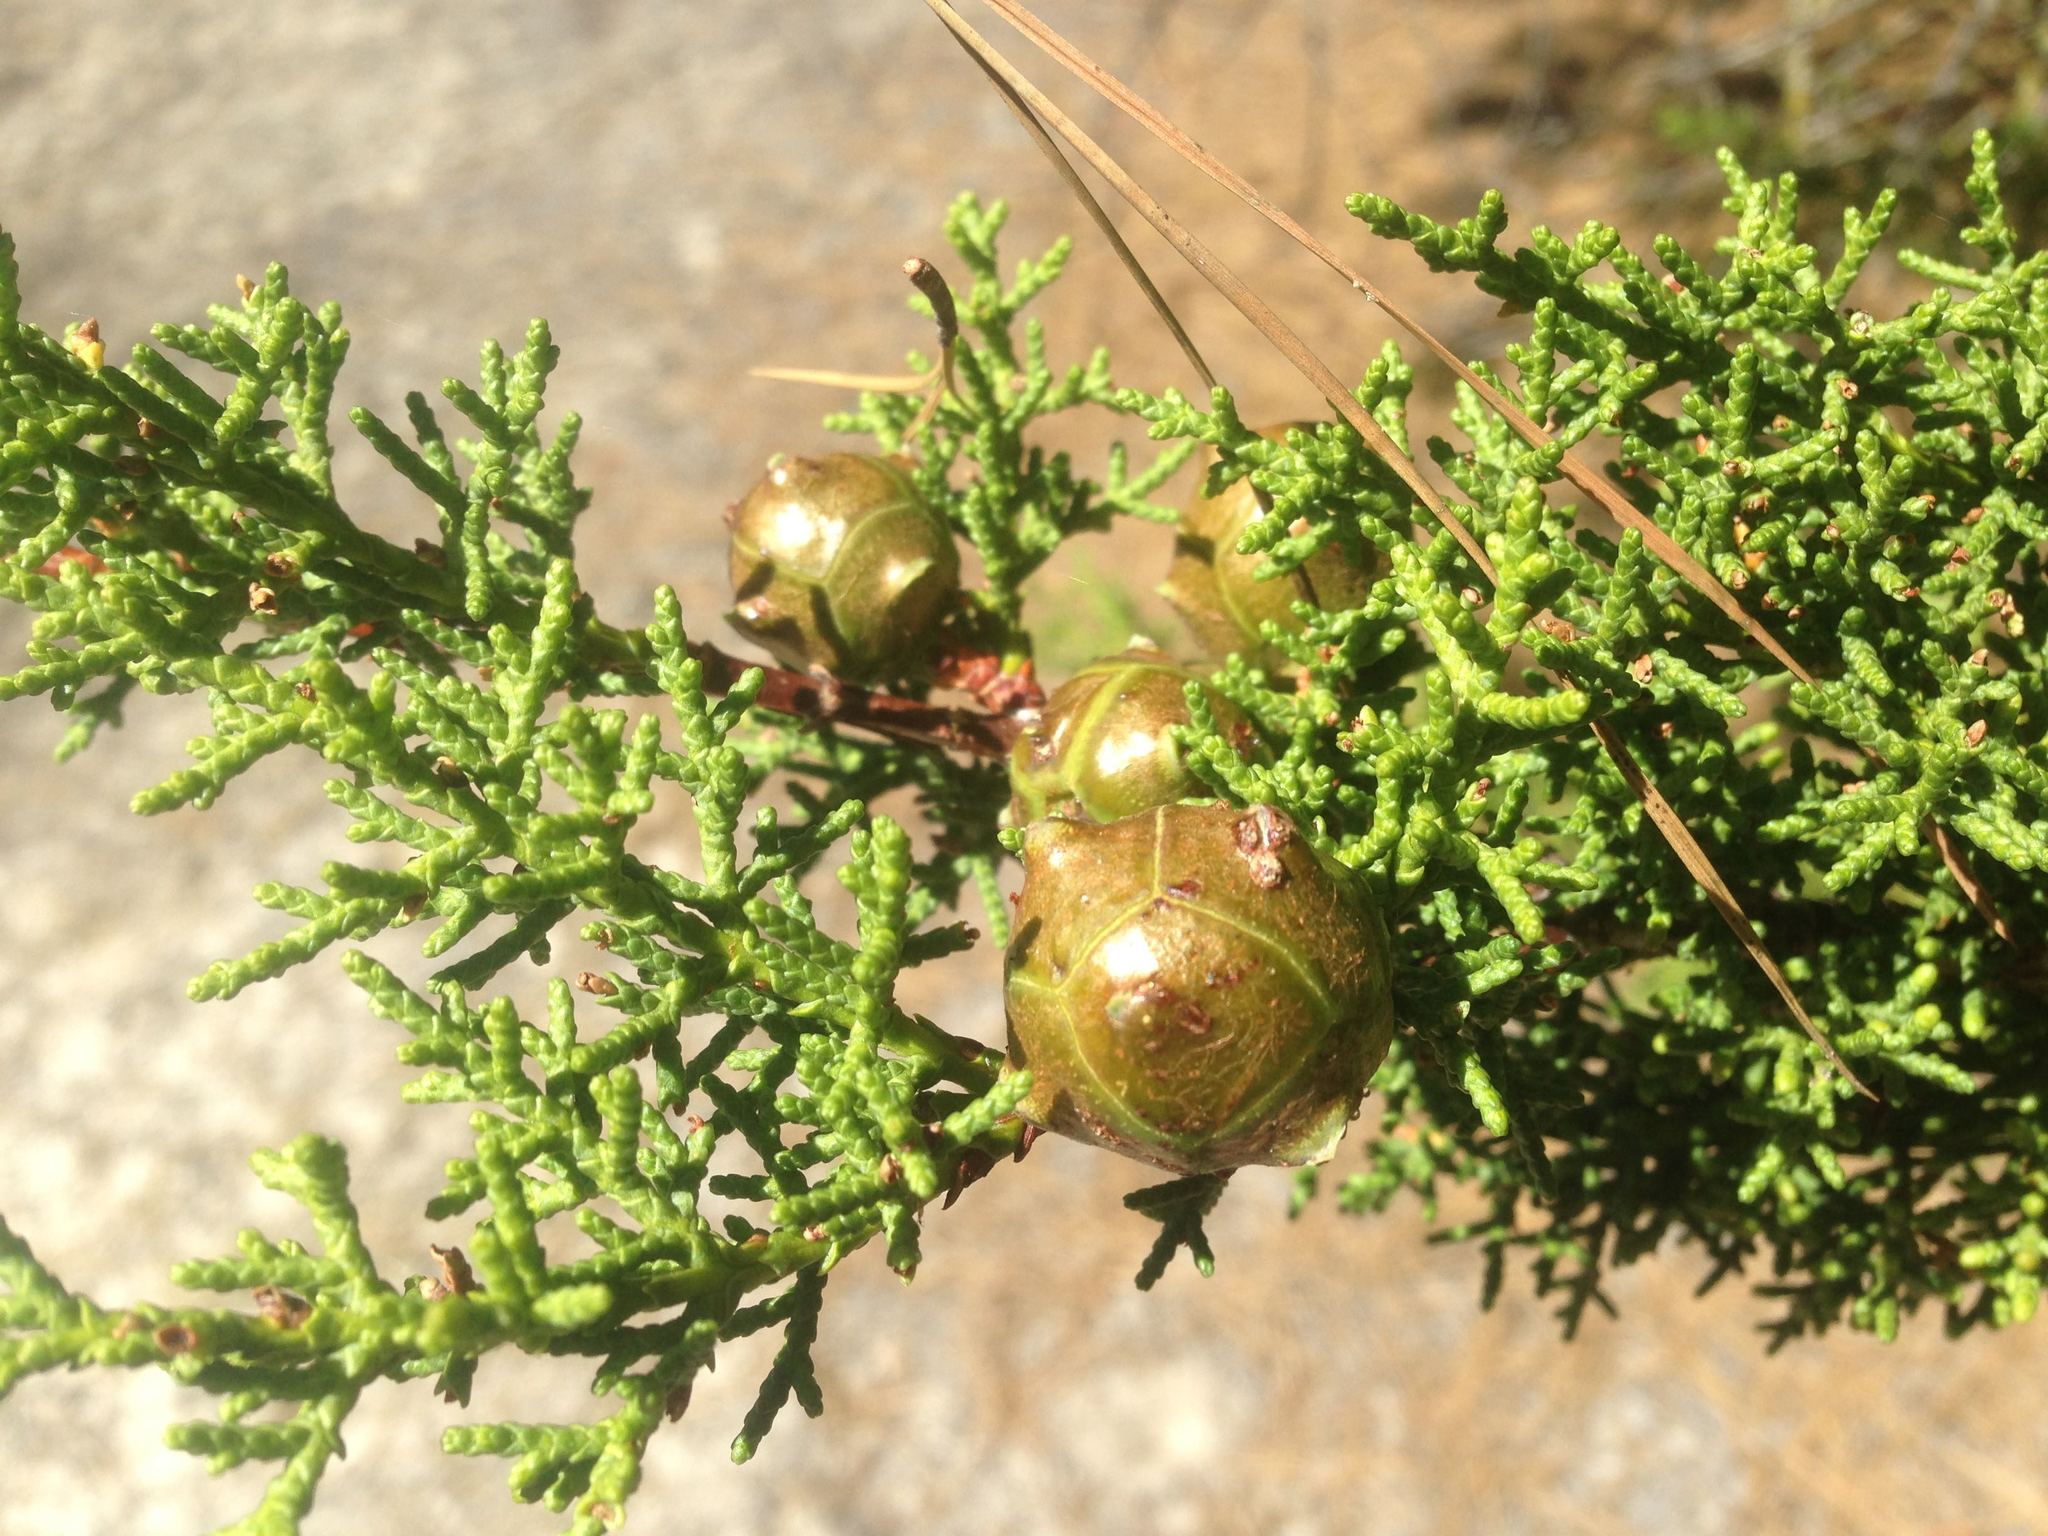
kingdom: Plantae
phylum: Tracheophyta
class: Pinopsida
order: Pinales
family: Cupressaceae
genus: Cupressus
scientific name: Cupressus goveniana
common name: Gowen cypress
